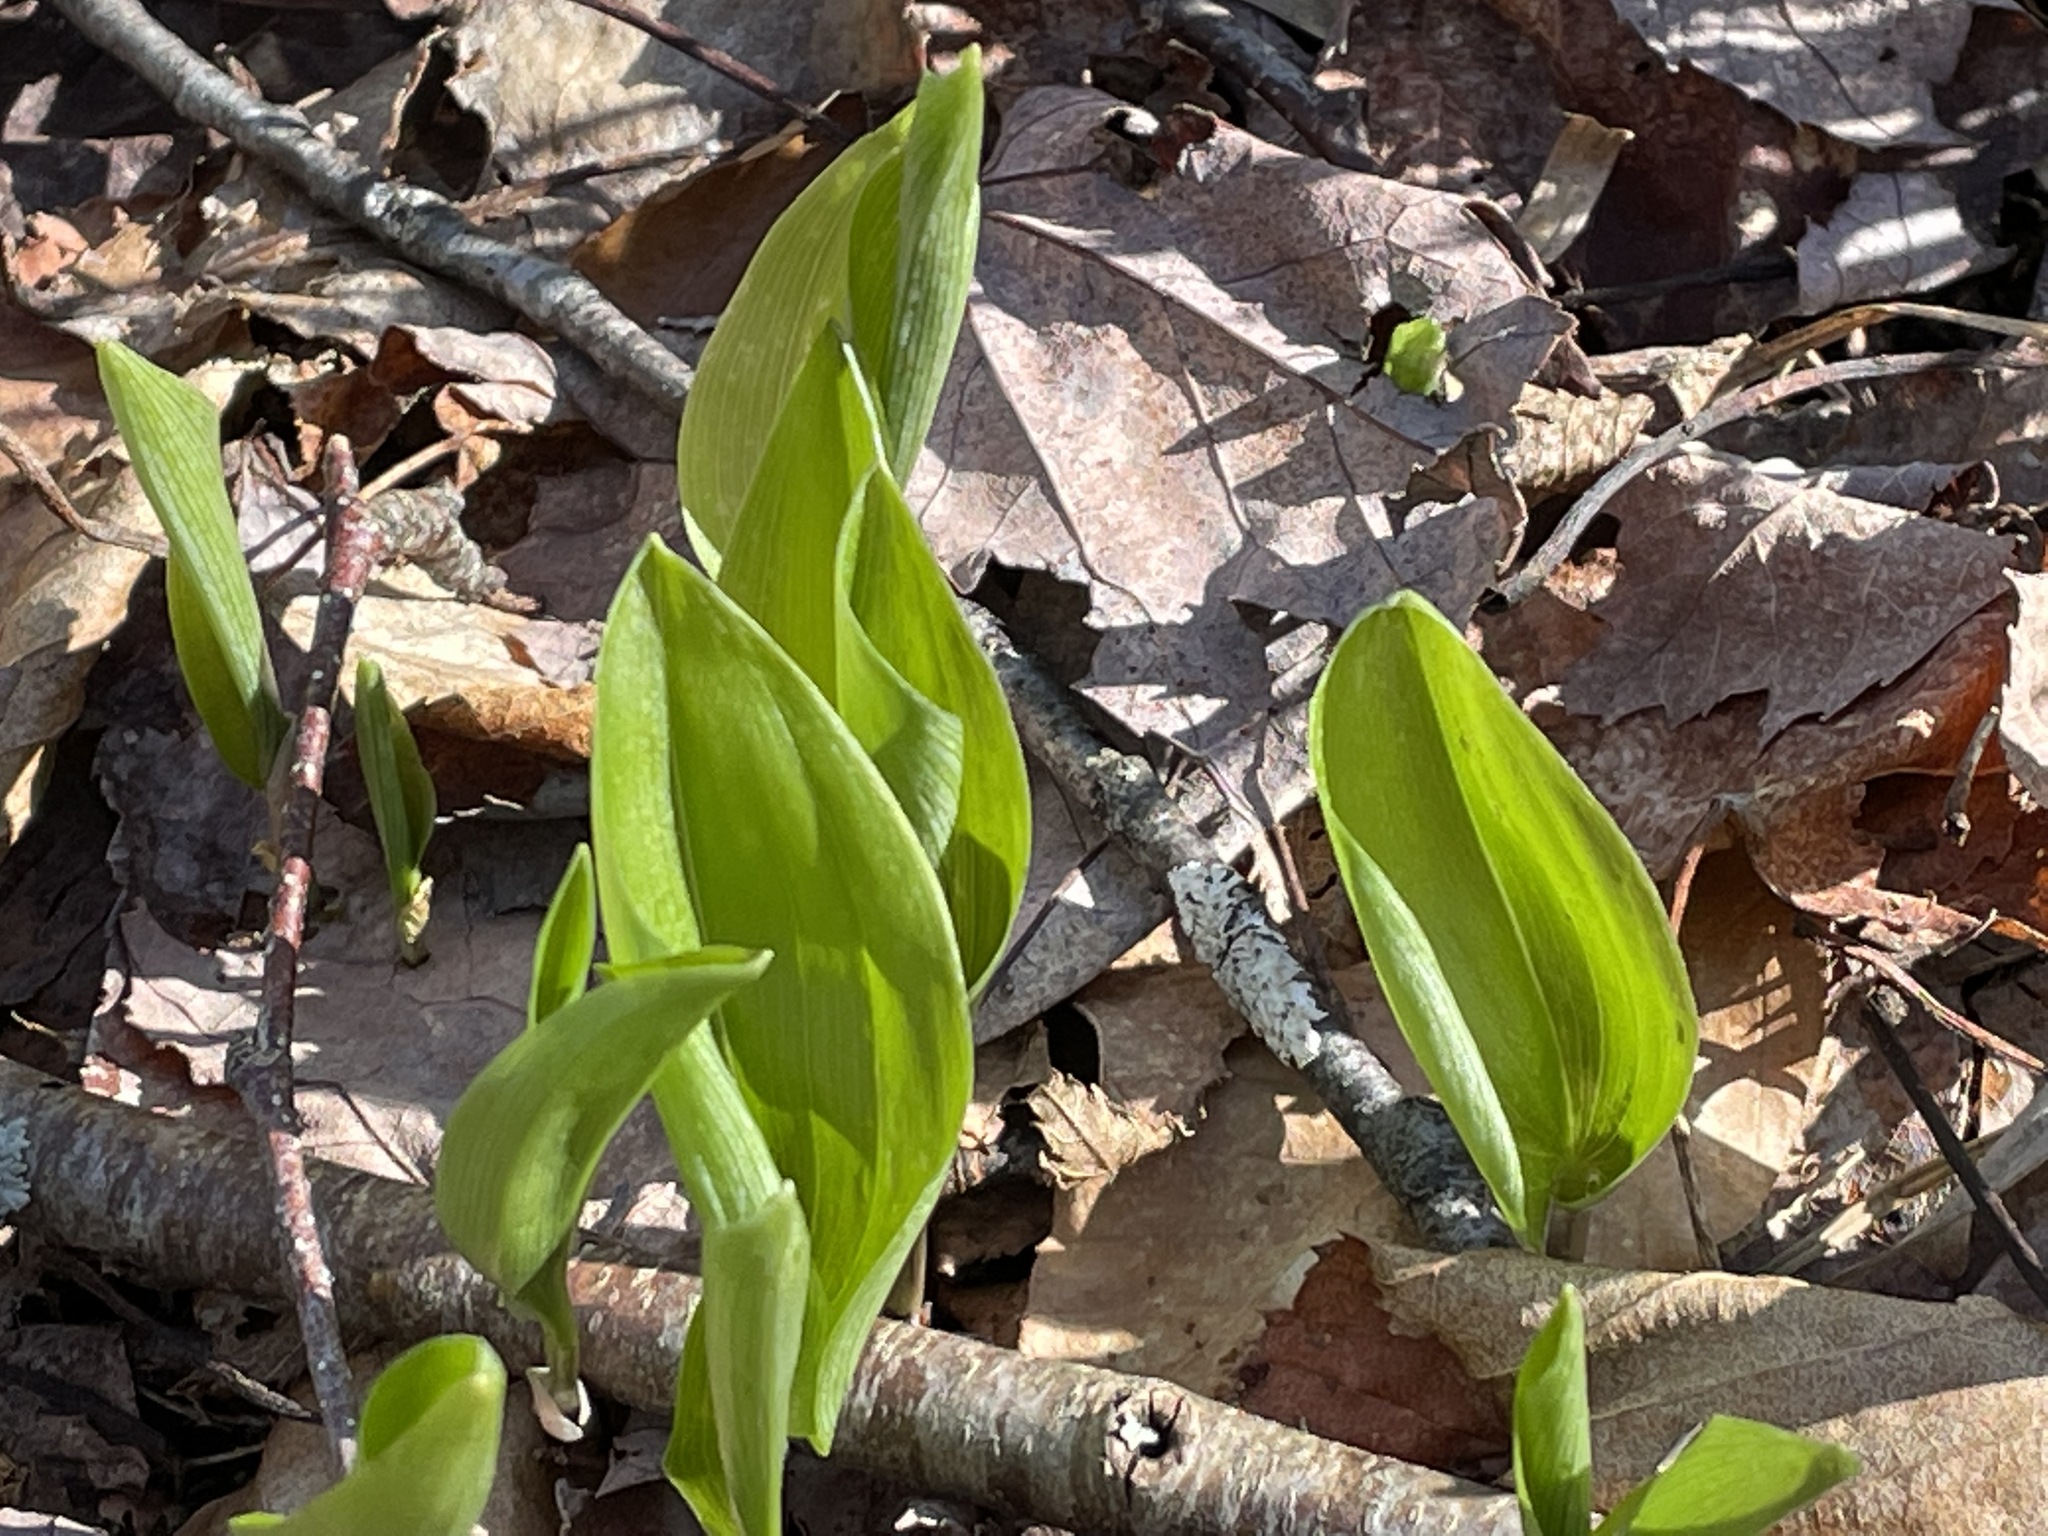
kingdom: Plantae
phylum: Tracheophyta
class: Liliopsida
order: Asparagales
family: Asparagaceae
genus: Maianthemum
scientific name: Maianthemum canadense
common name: False lily-of-the-valley
